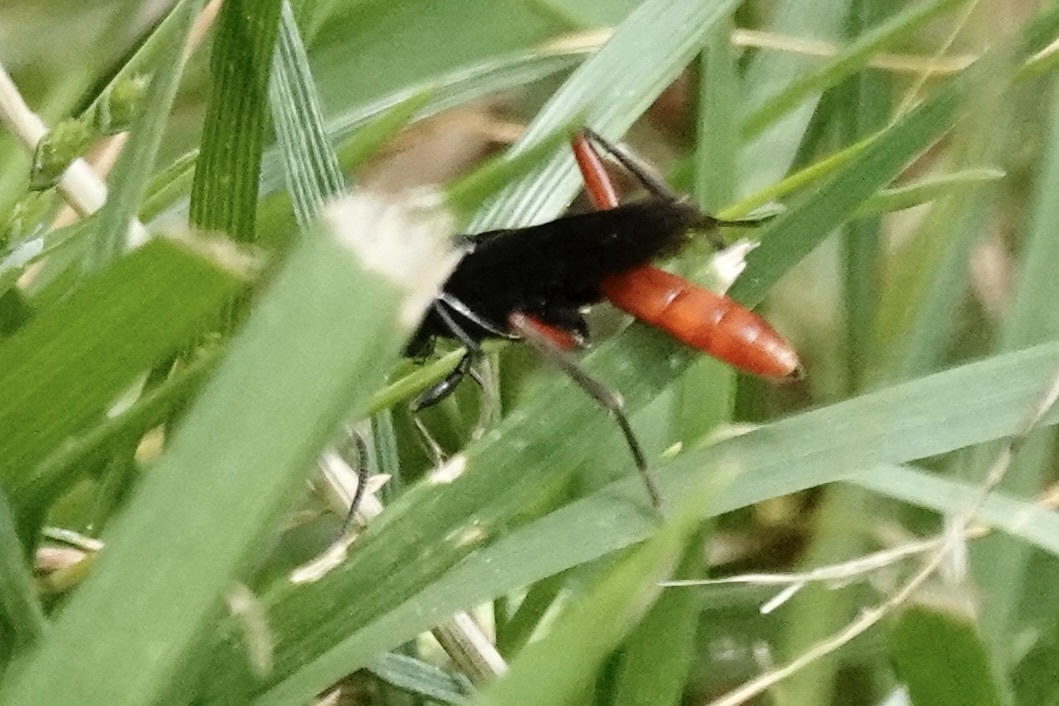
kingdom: Animalia
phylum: Arthropoda
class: Insecta
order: Hymenoptera
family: Ichneumonidae
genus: Limonethe
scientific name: Limonethe maurator
